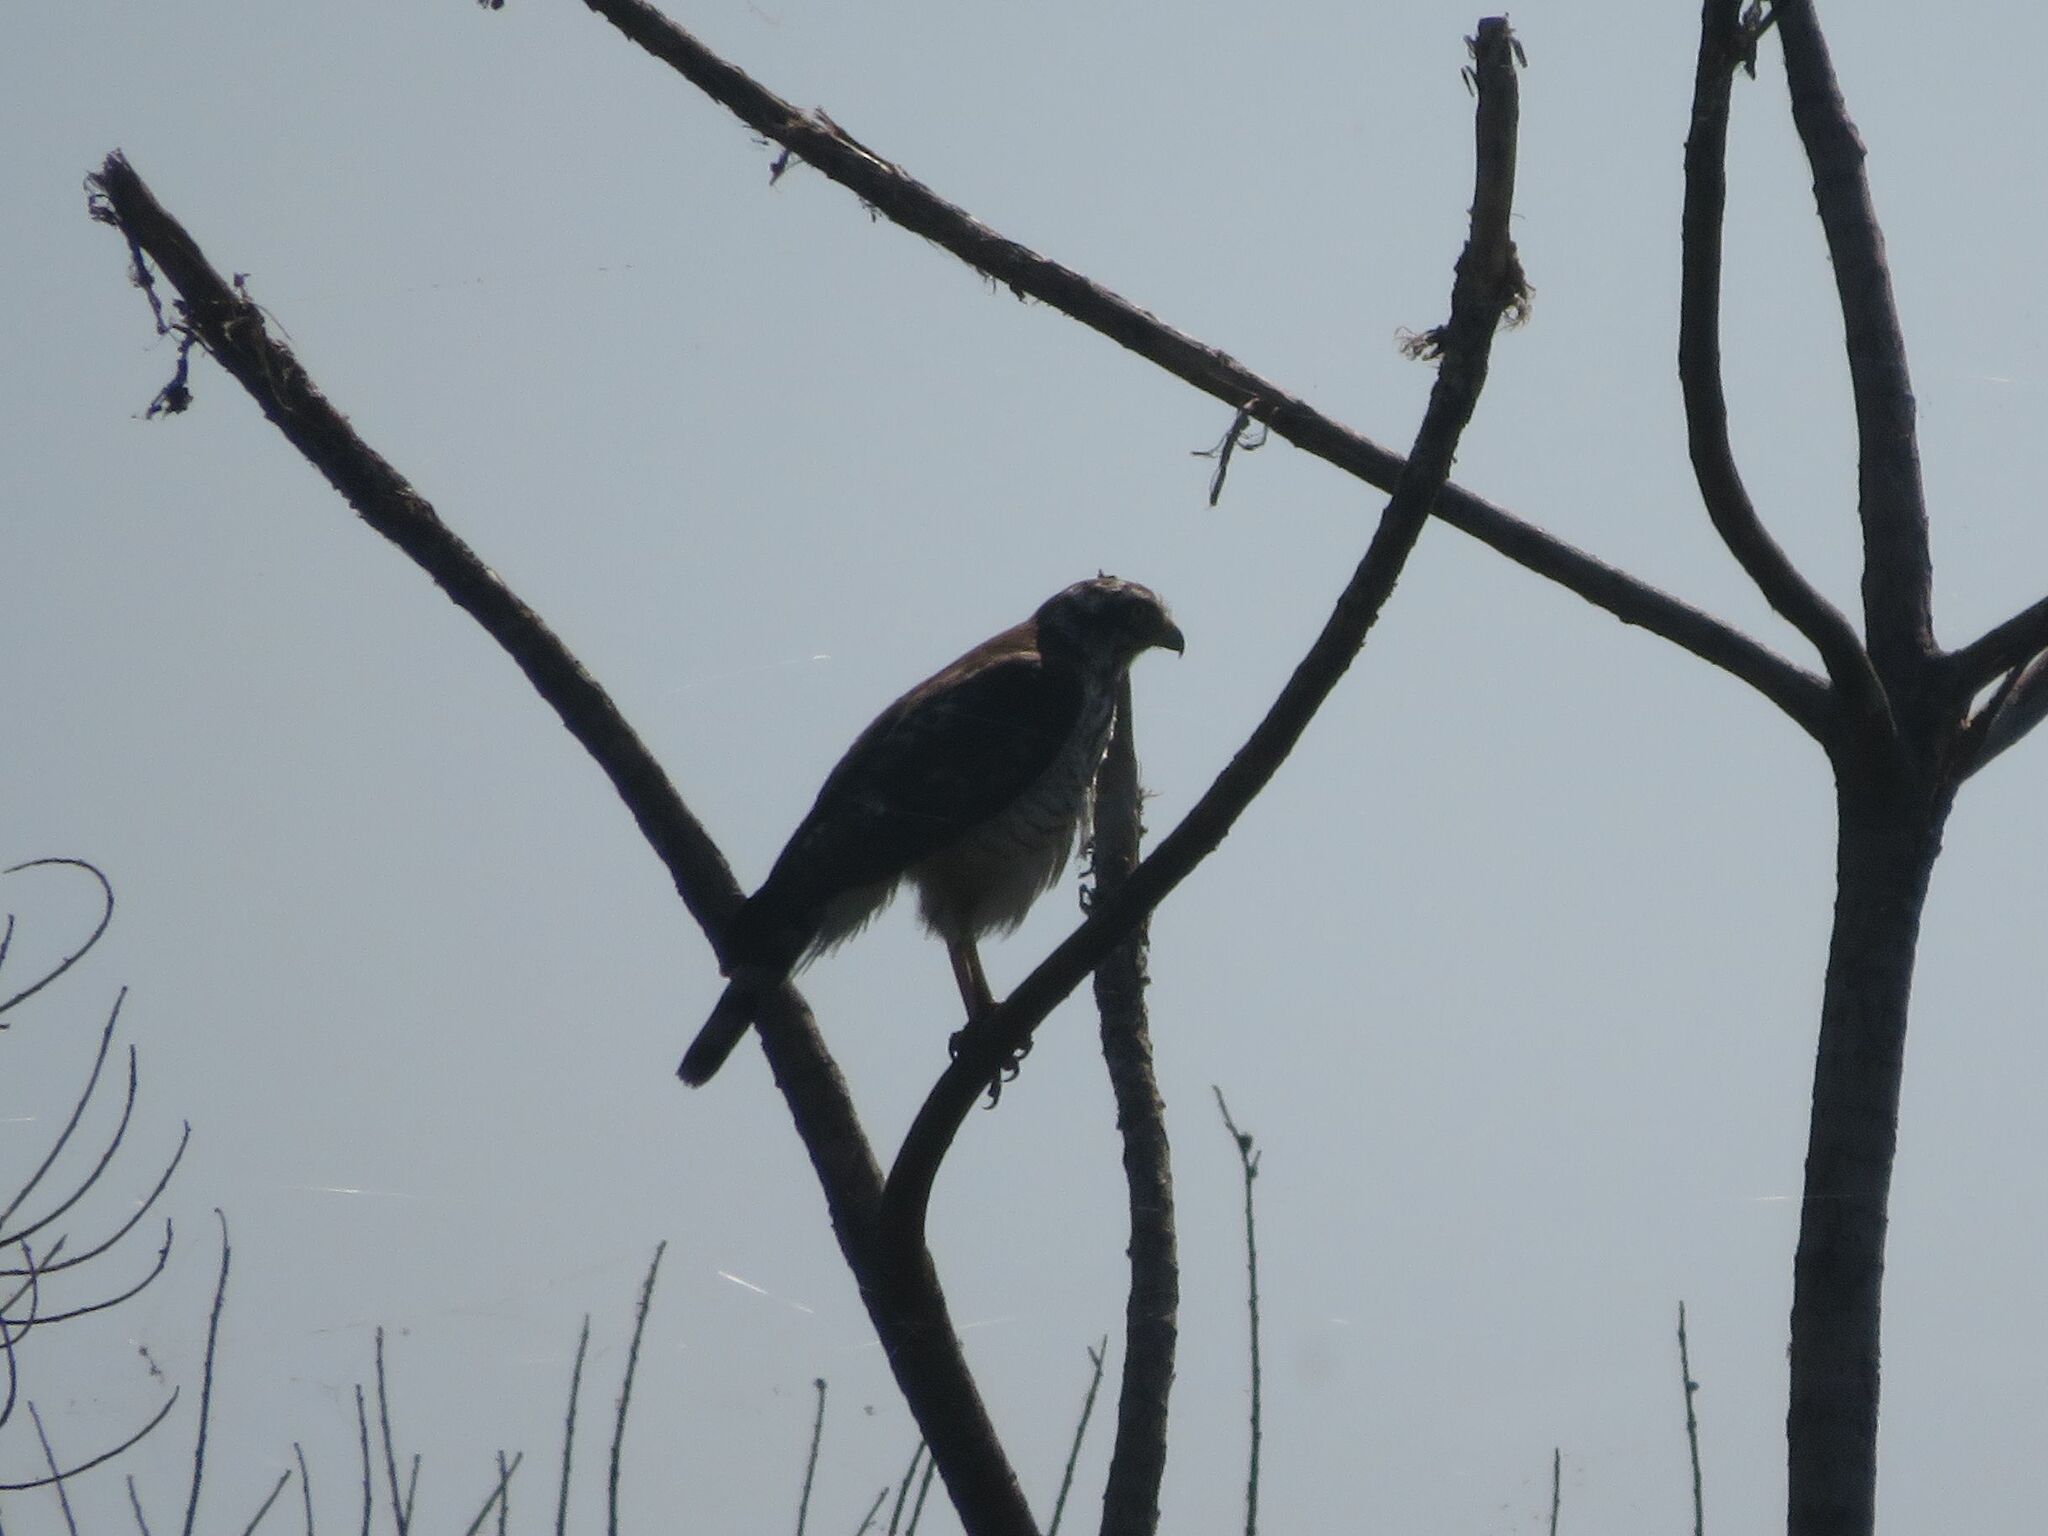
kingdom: Animalia
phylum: Chordata
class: Aves
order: Accipitriformes
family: Accipitridae
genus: Rupornis
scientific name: Rupornis magnirostris
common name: Roadside hawk
